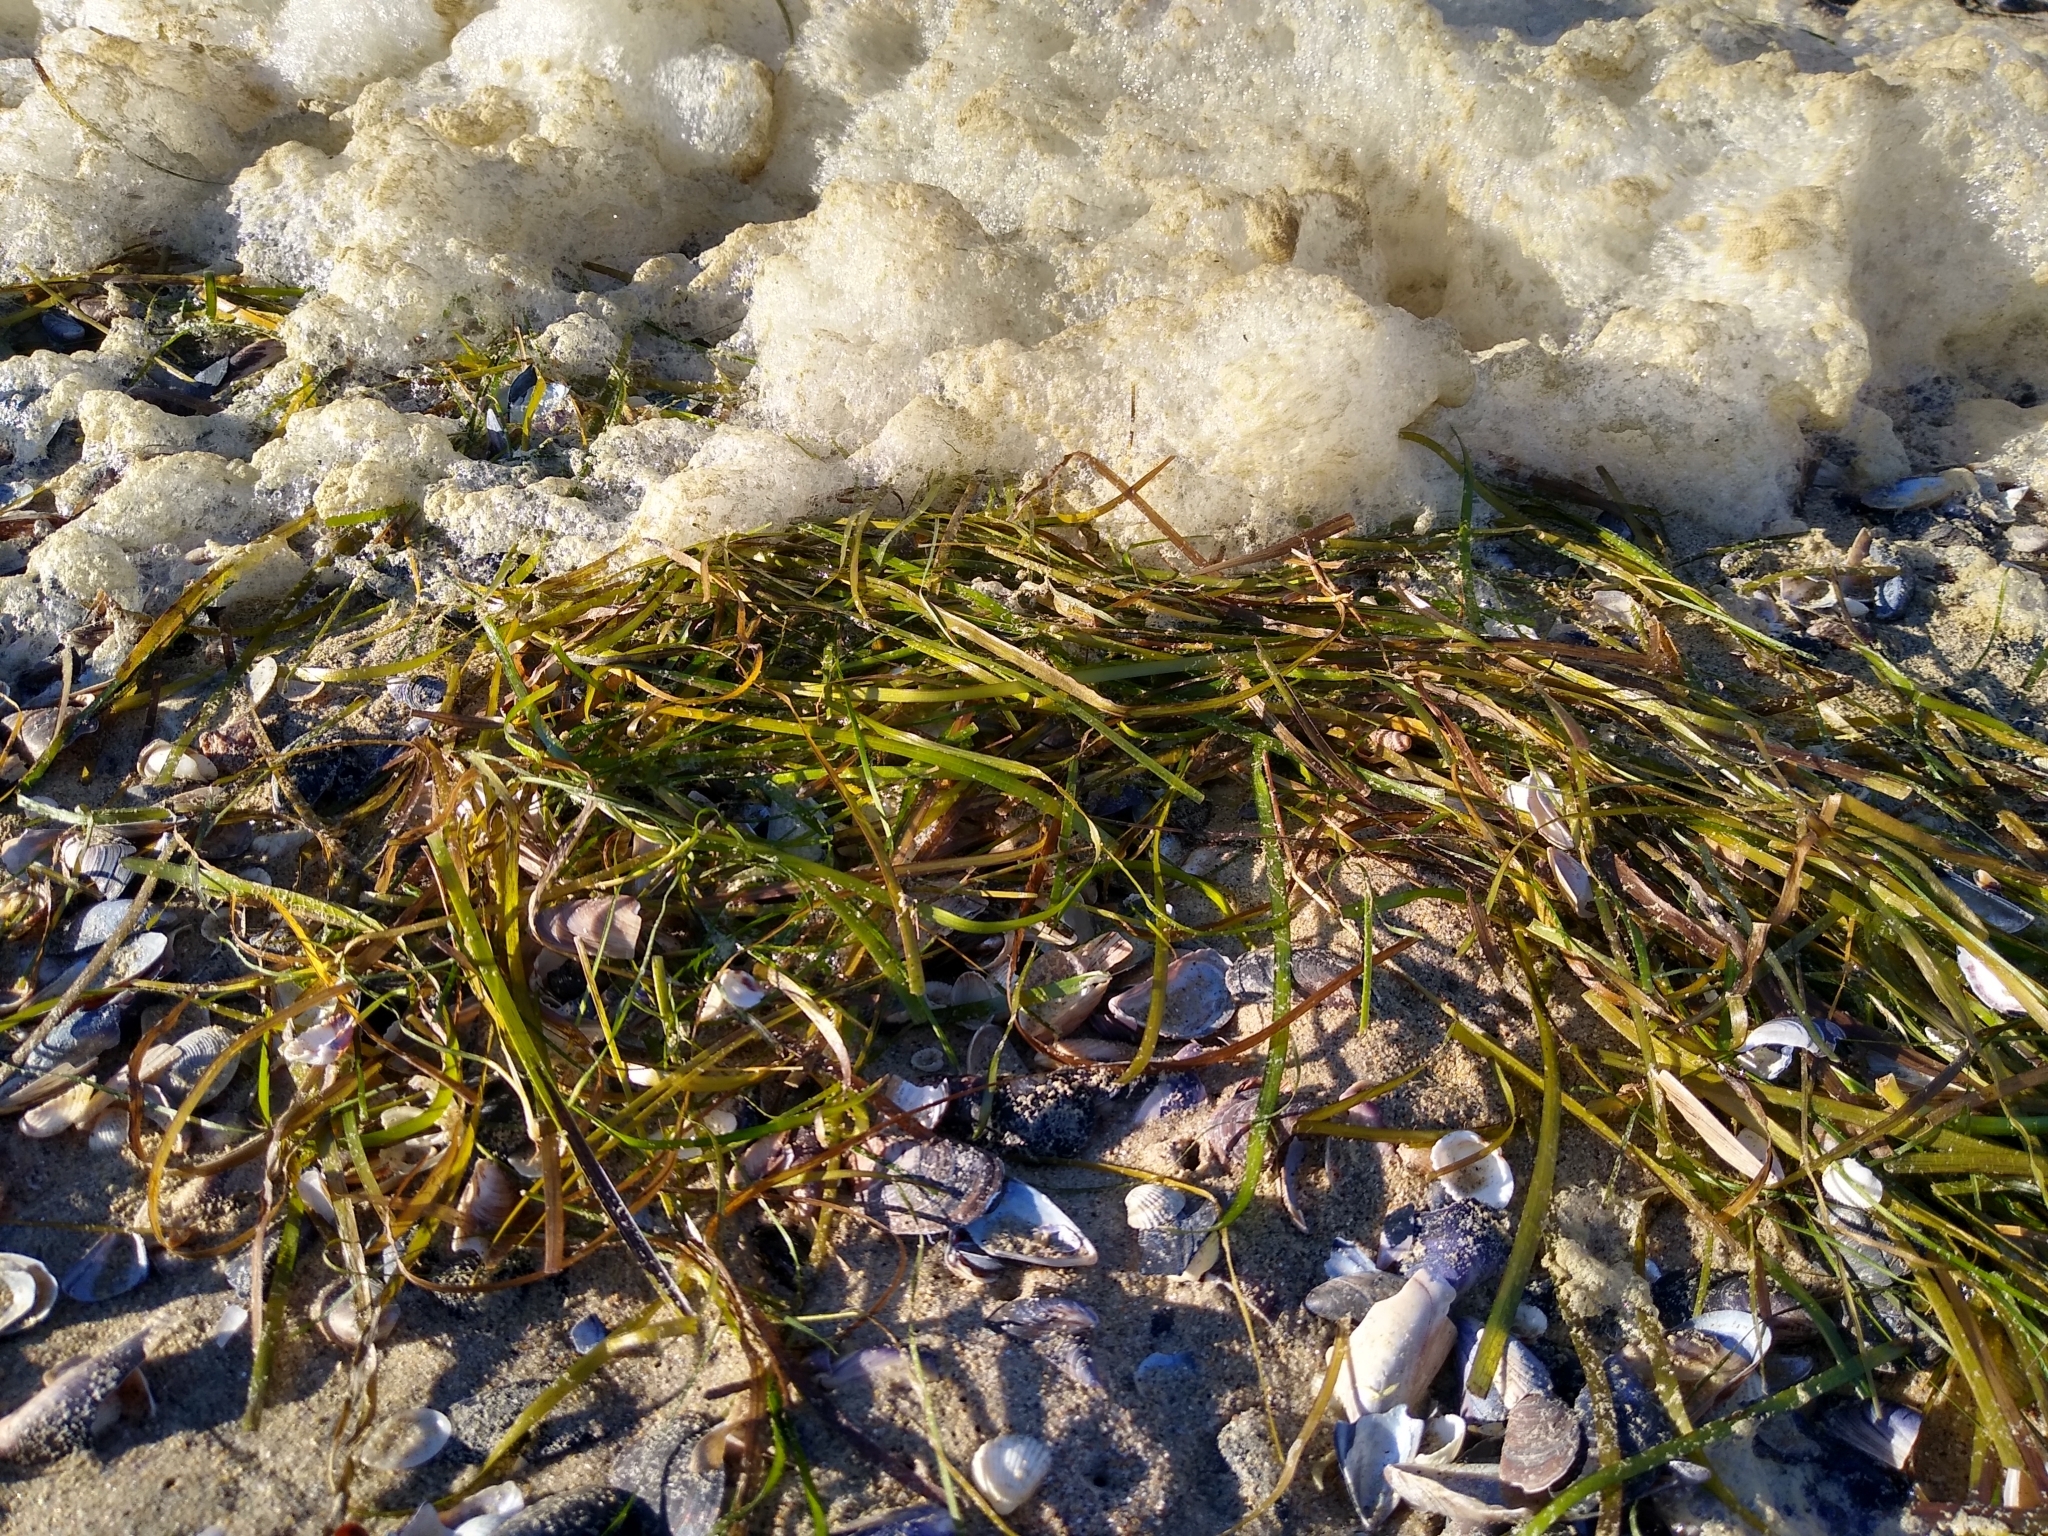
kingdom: Plantae
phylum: Tracheophyta
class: Liliopsida
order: Alismatales
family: Zosteraceae
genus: Zostera
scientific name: Zostera marina
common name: Eelgrass
